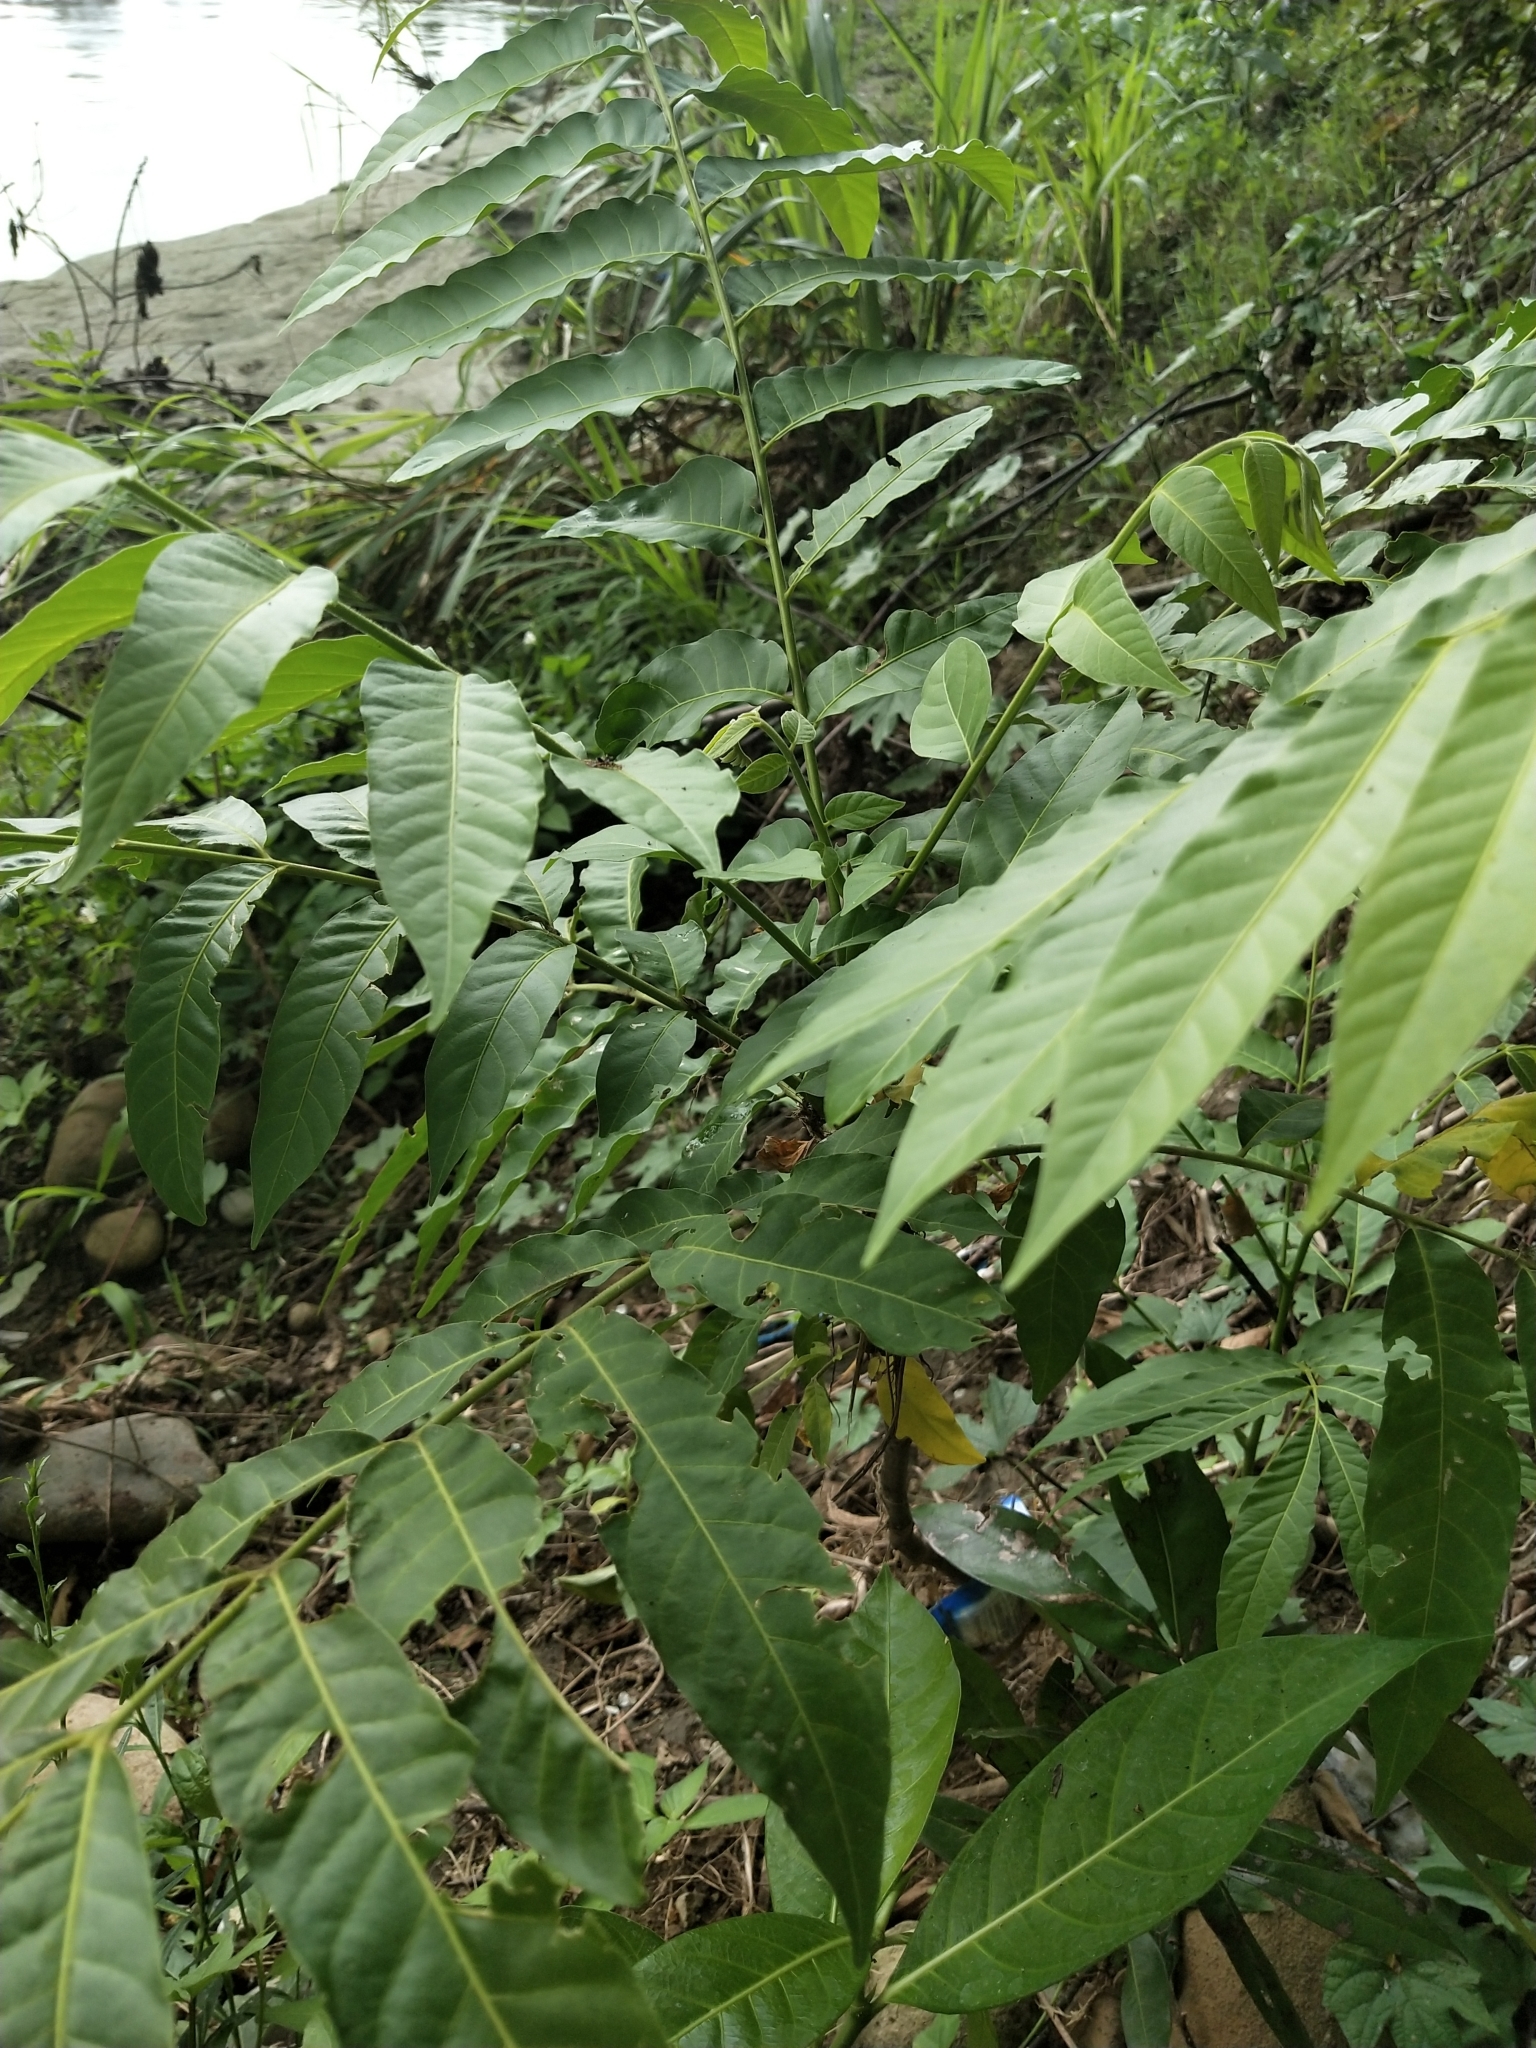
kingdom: Plantae
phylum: Tracheophyta
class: Magnoliopsida
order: Sapindales
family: Meliaceae
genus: Didymocheton
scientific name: Didymocheton gaudichaudianus
